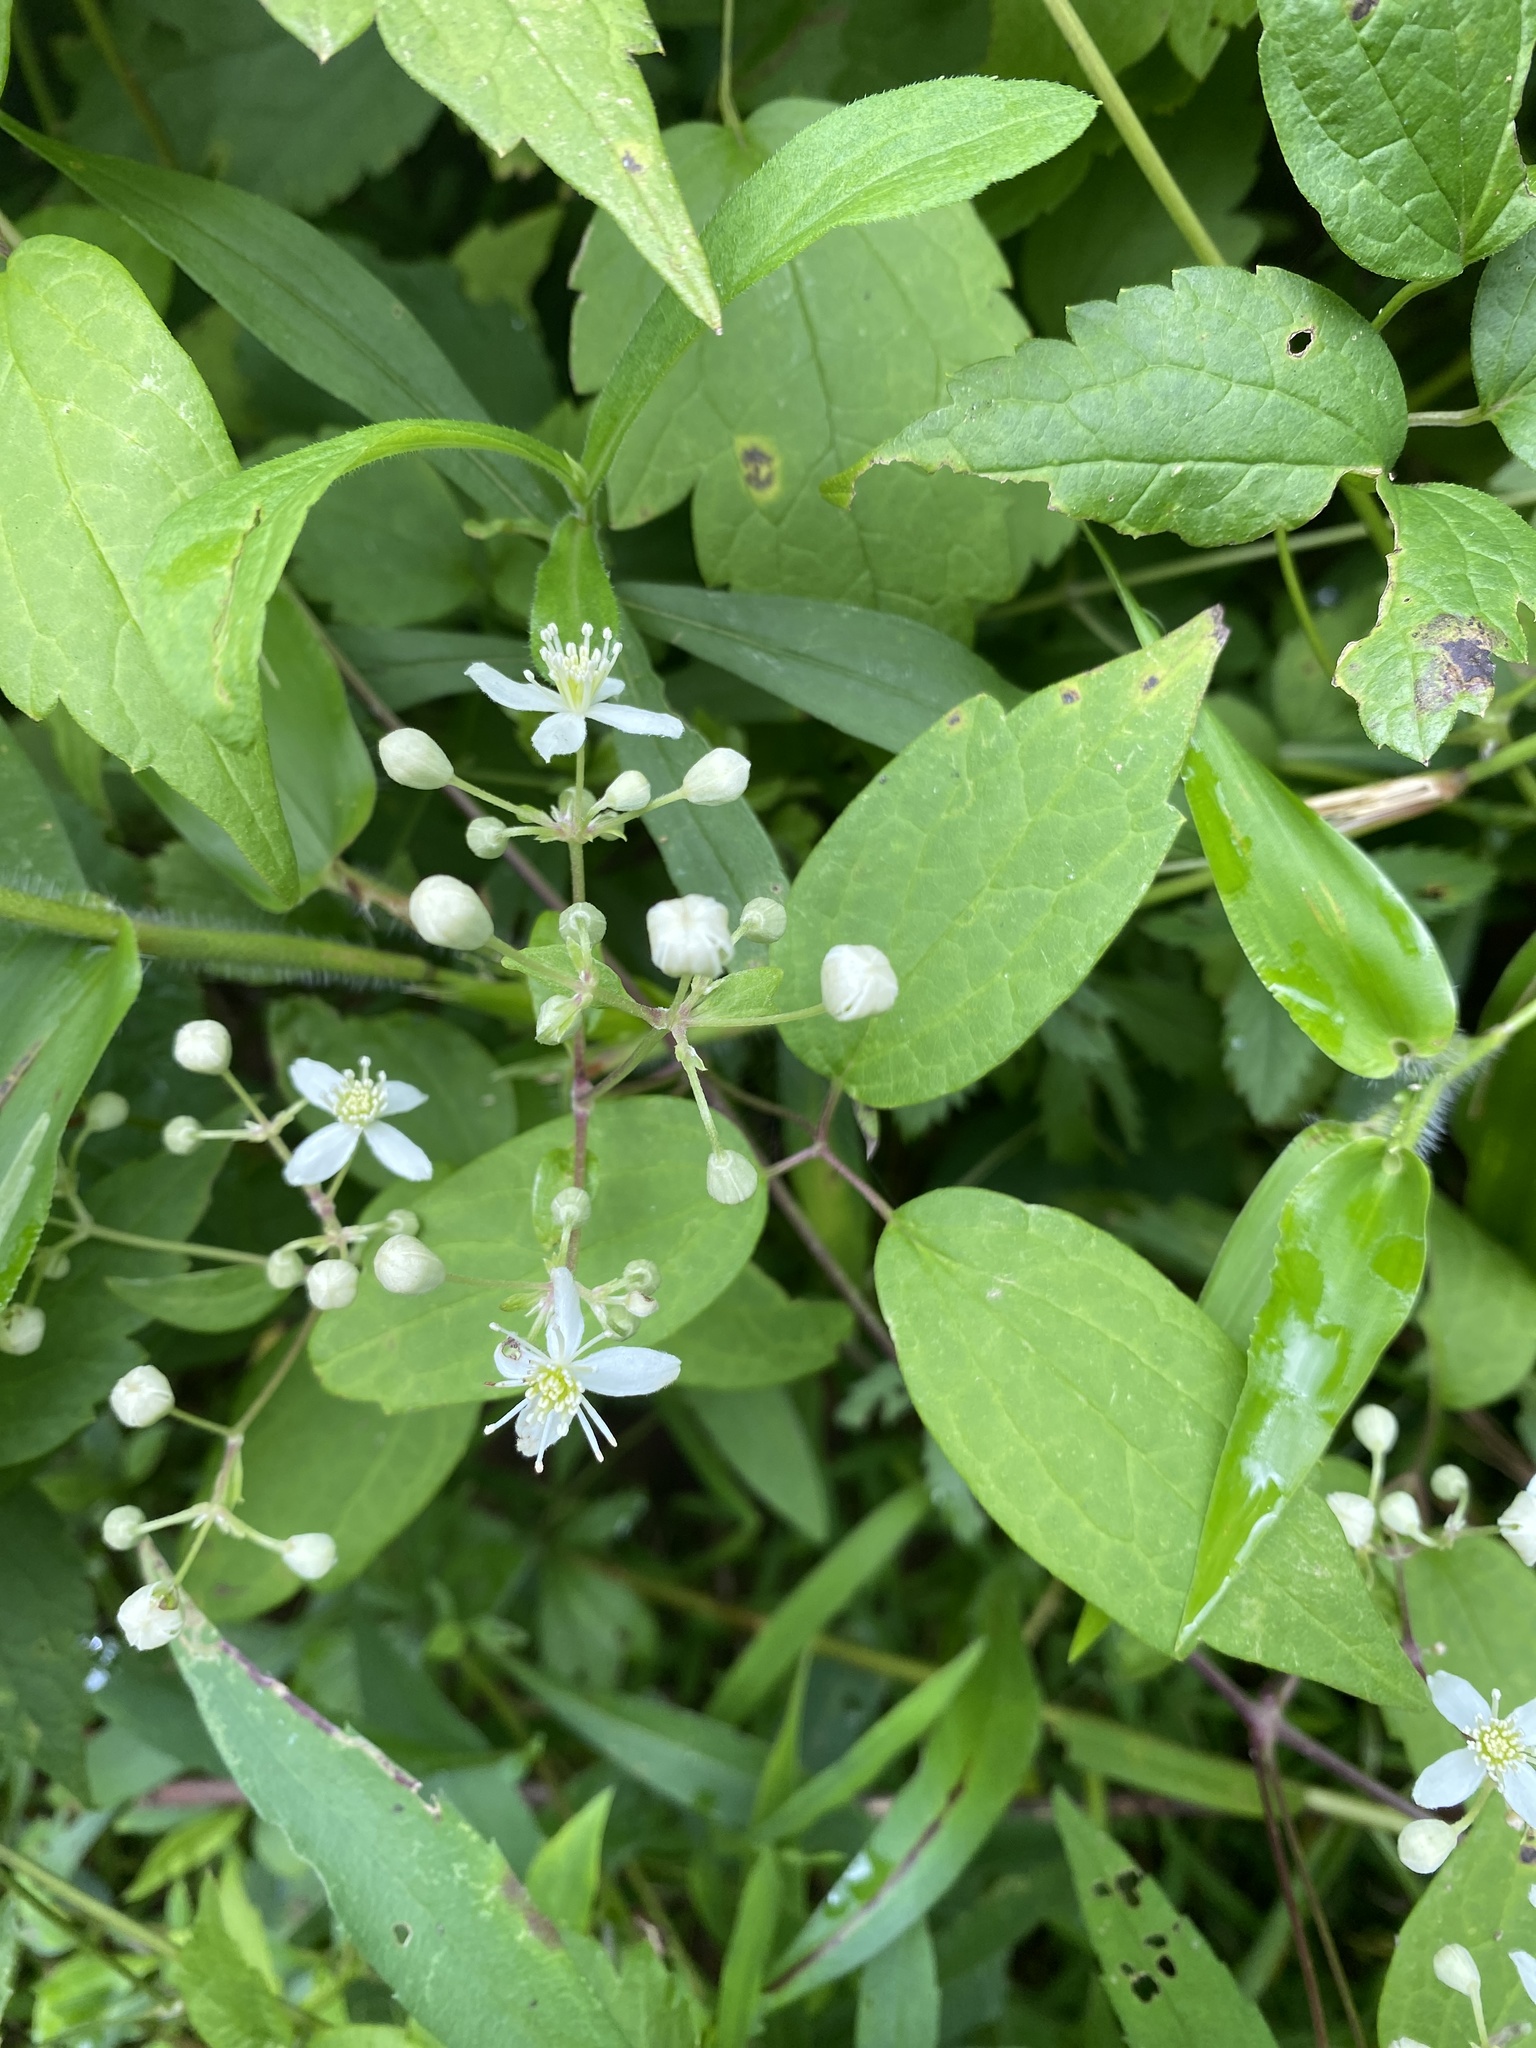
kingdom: Plantae
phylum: Tracheophyta
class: Magnoliopsida
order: Ranunculales
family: Ranunculaceae
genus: Clematis
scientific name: Clematis virginiana
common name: Virgin's-bower
